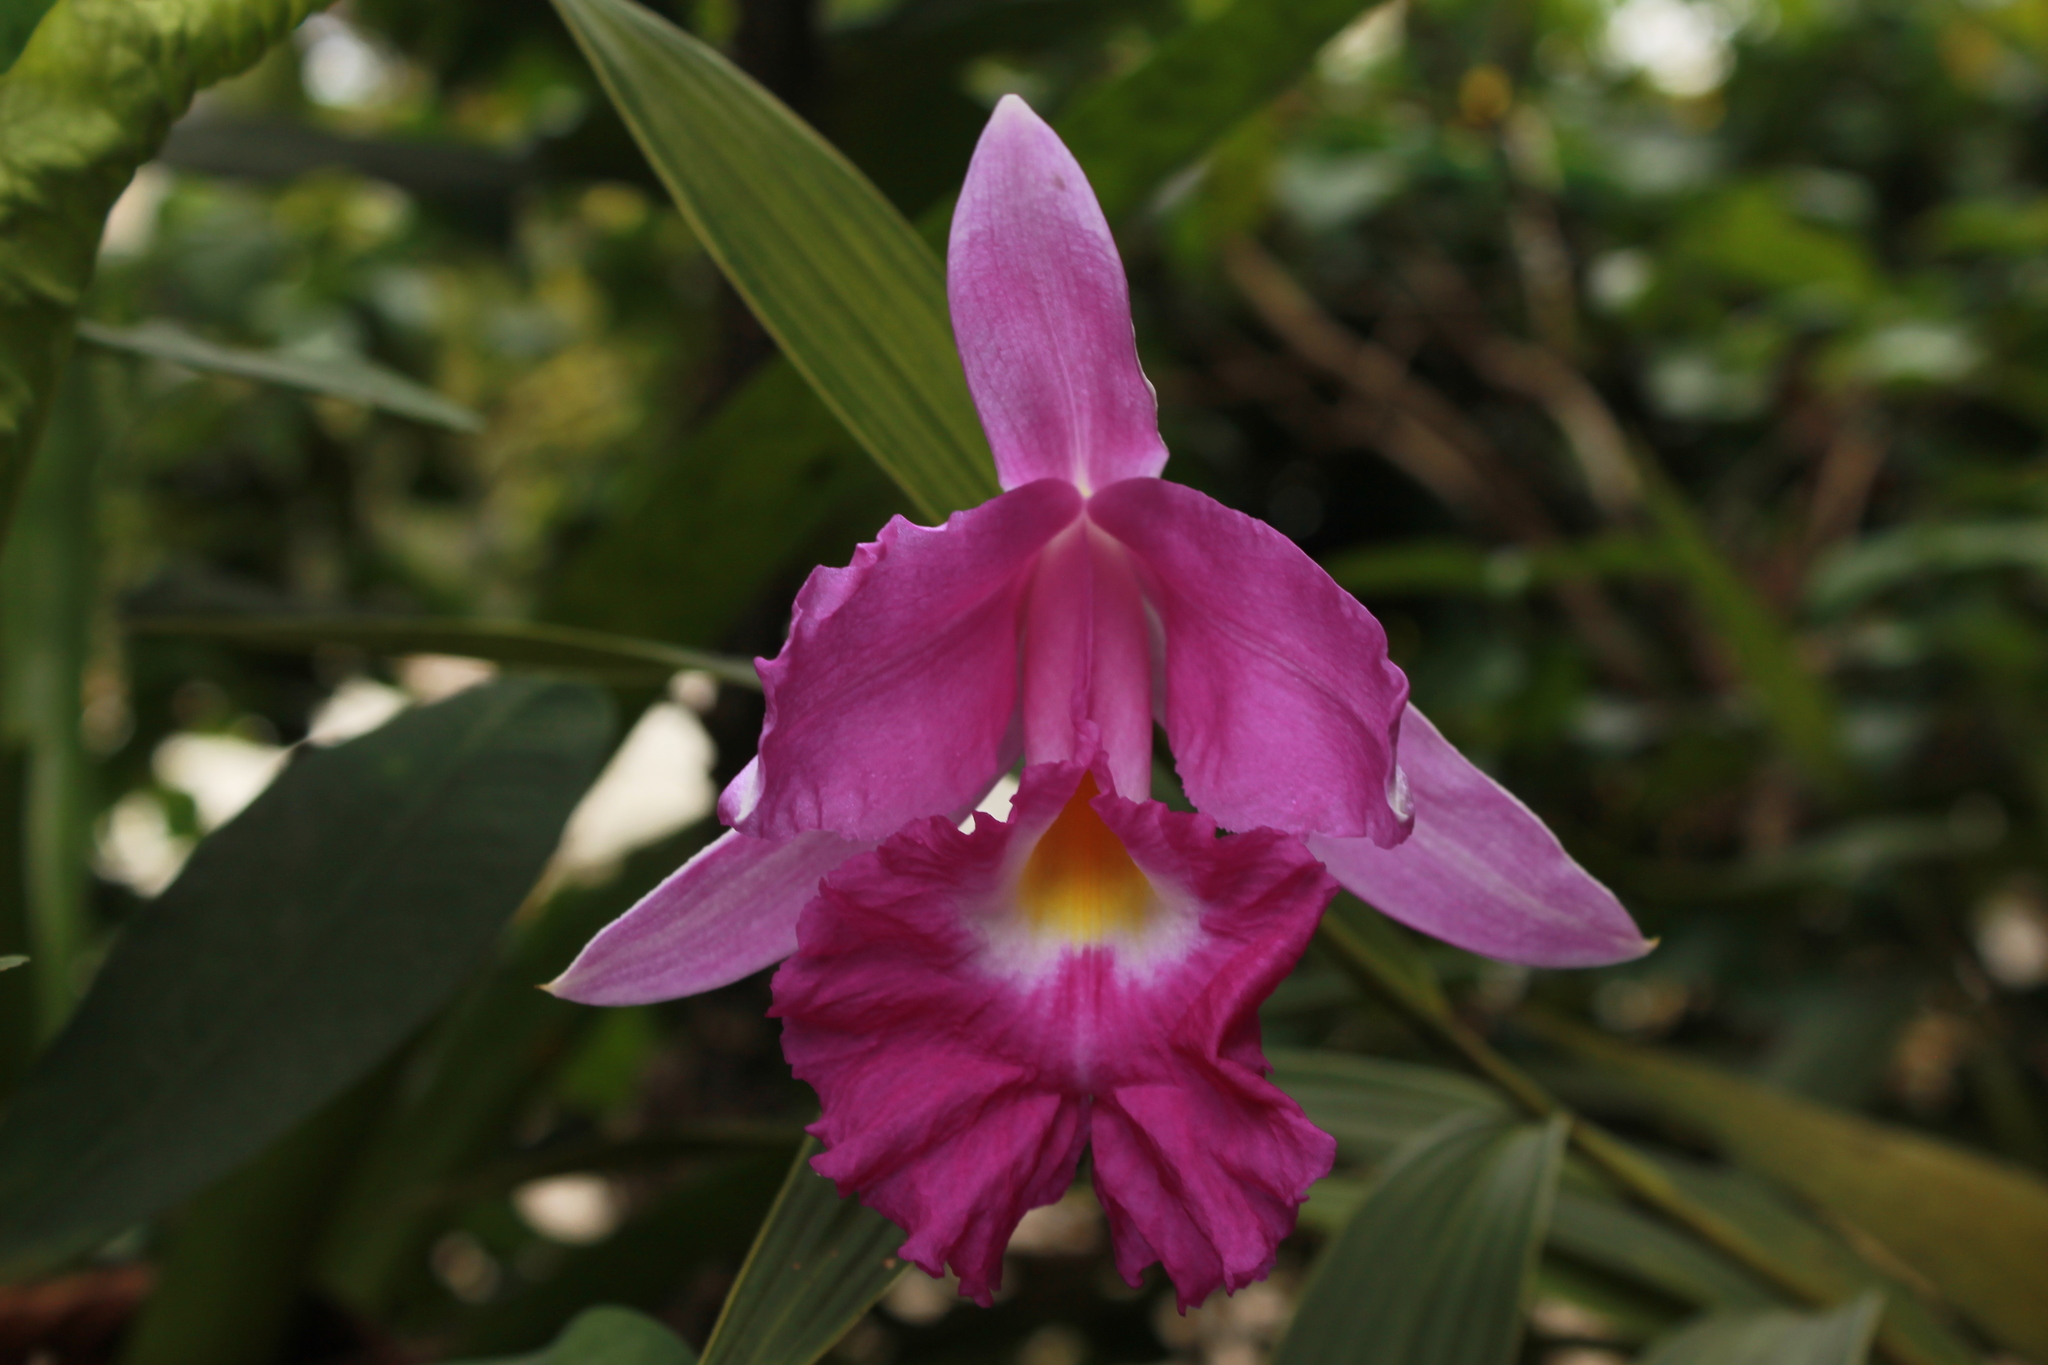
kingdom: Plantae
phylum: Tracheophyta
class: Liliopsida
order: Asparagales
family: Orchidaceae
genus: Sobralia
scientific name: Sobralia macrantha
